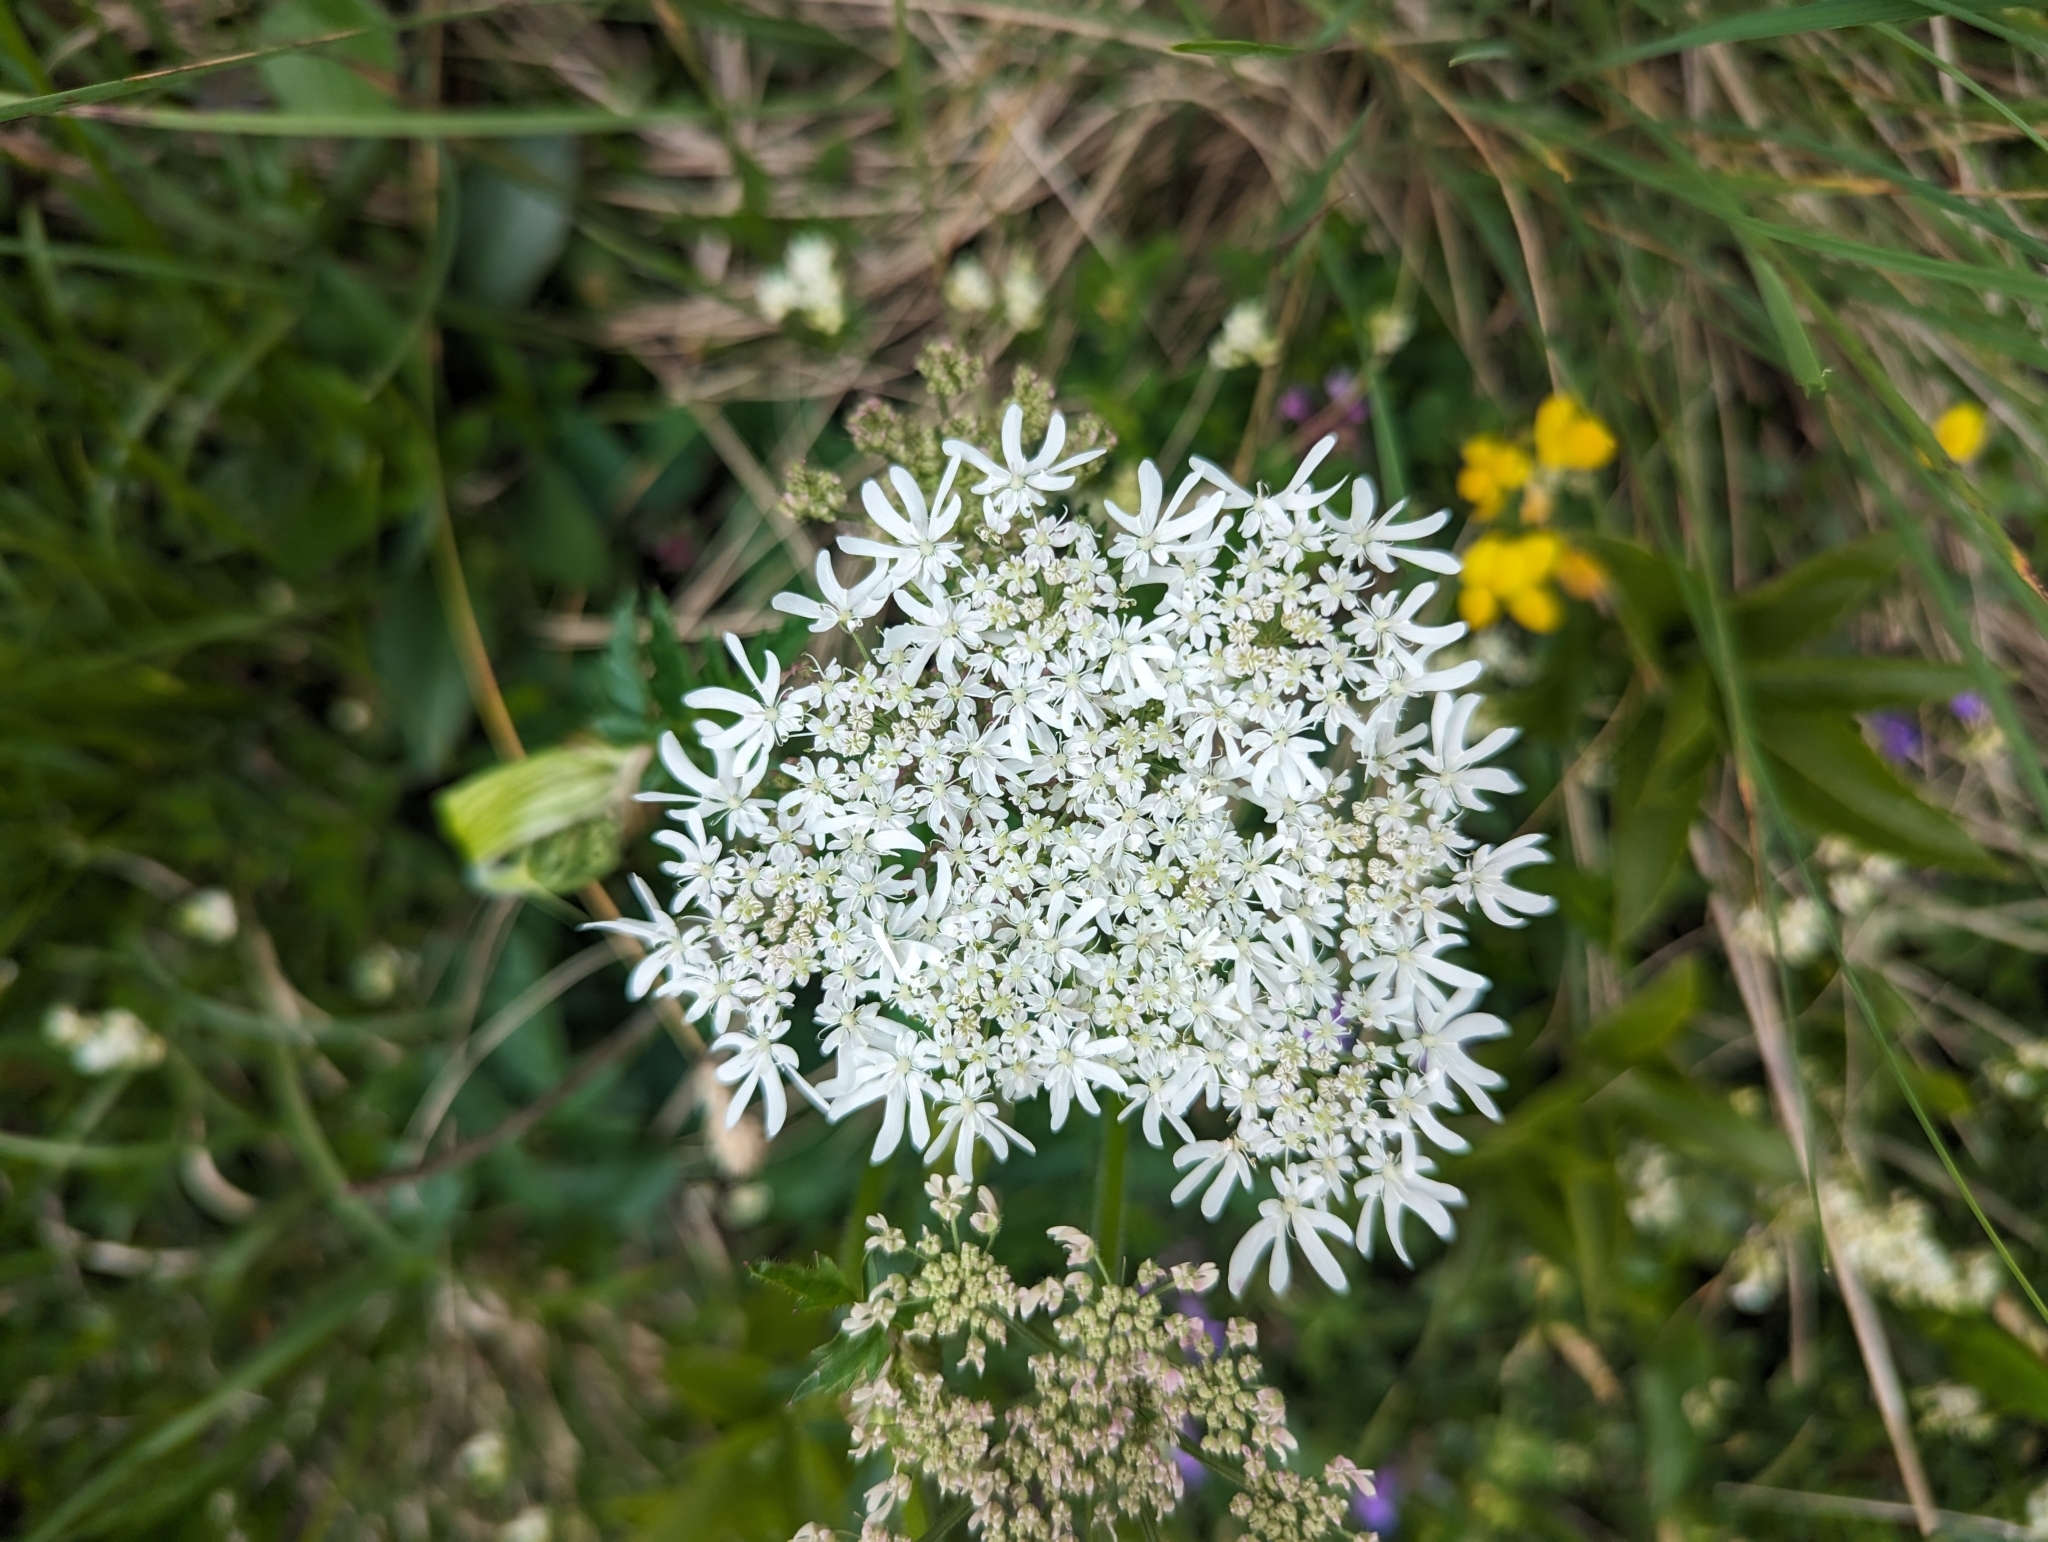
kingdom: Plantae
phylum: Tracheophyta
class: Magnoliopsida
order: Apiales
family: Apiaceae
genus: Heracleum
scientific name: Heracleum austriacum
